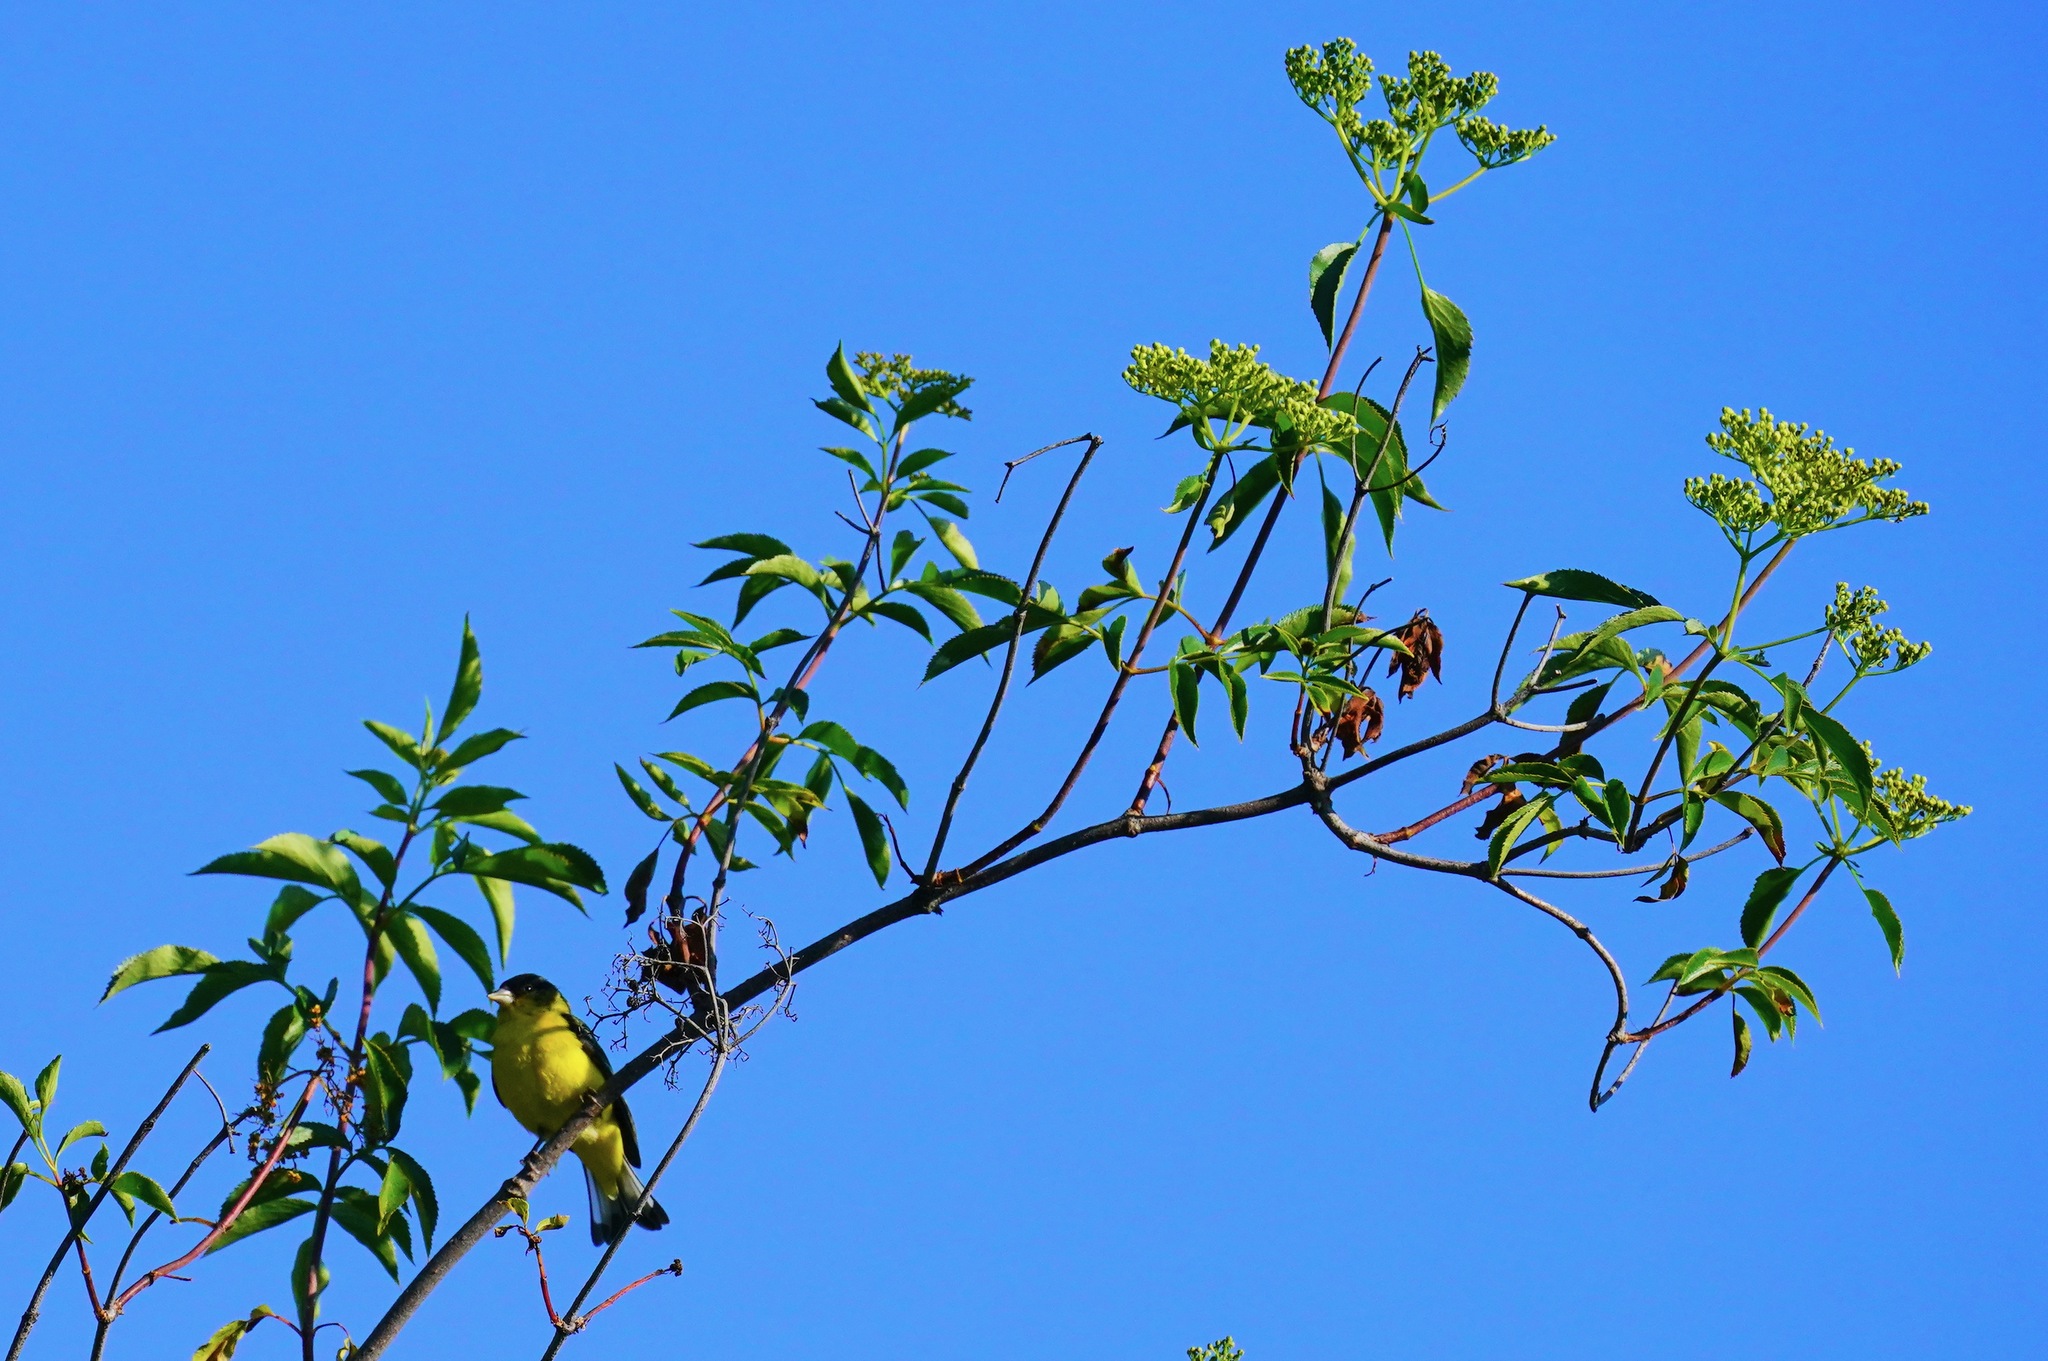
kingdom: Animalia
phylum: Chordata
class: Aves
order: Passeriformes
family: Fringillidae
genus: Spinus
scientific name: Spinus psaltria
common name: Lesser goldfinch
